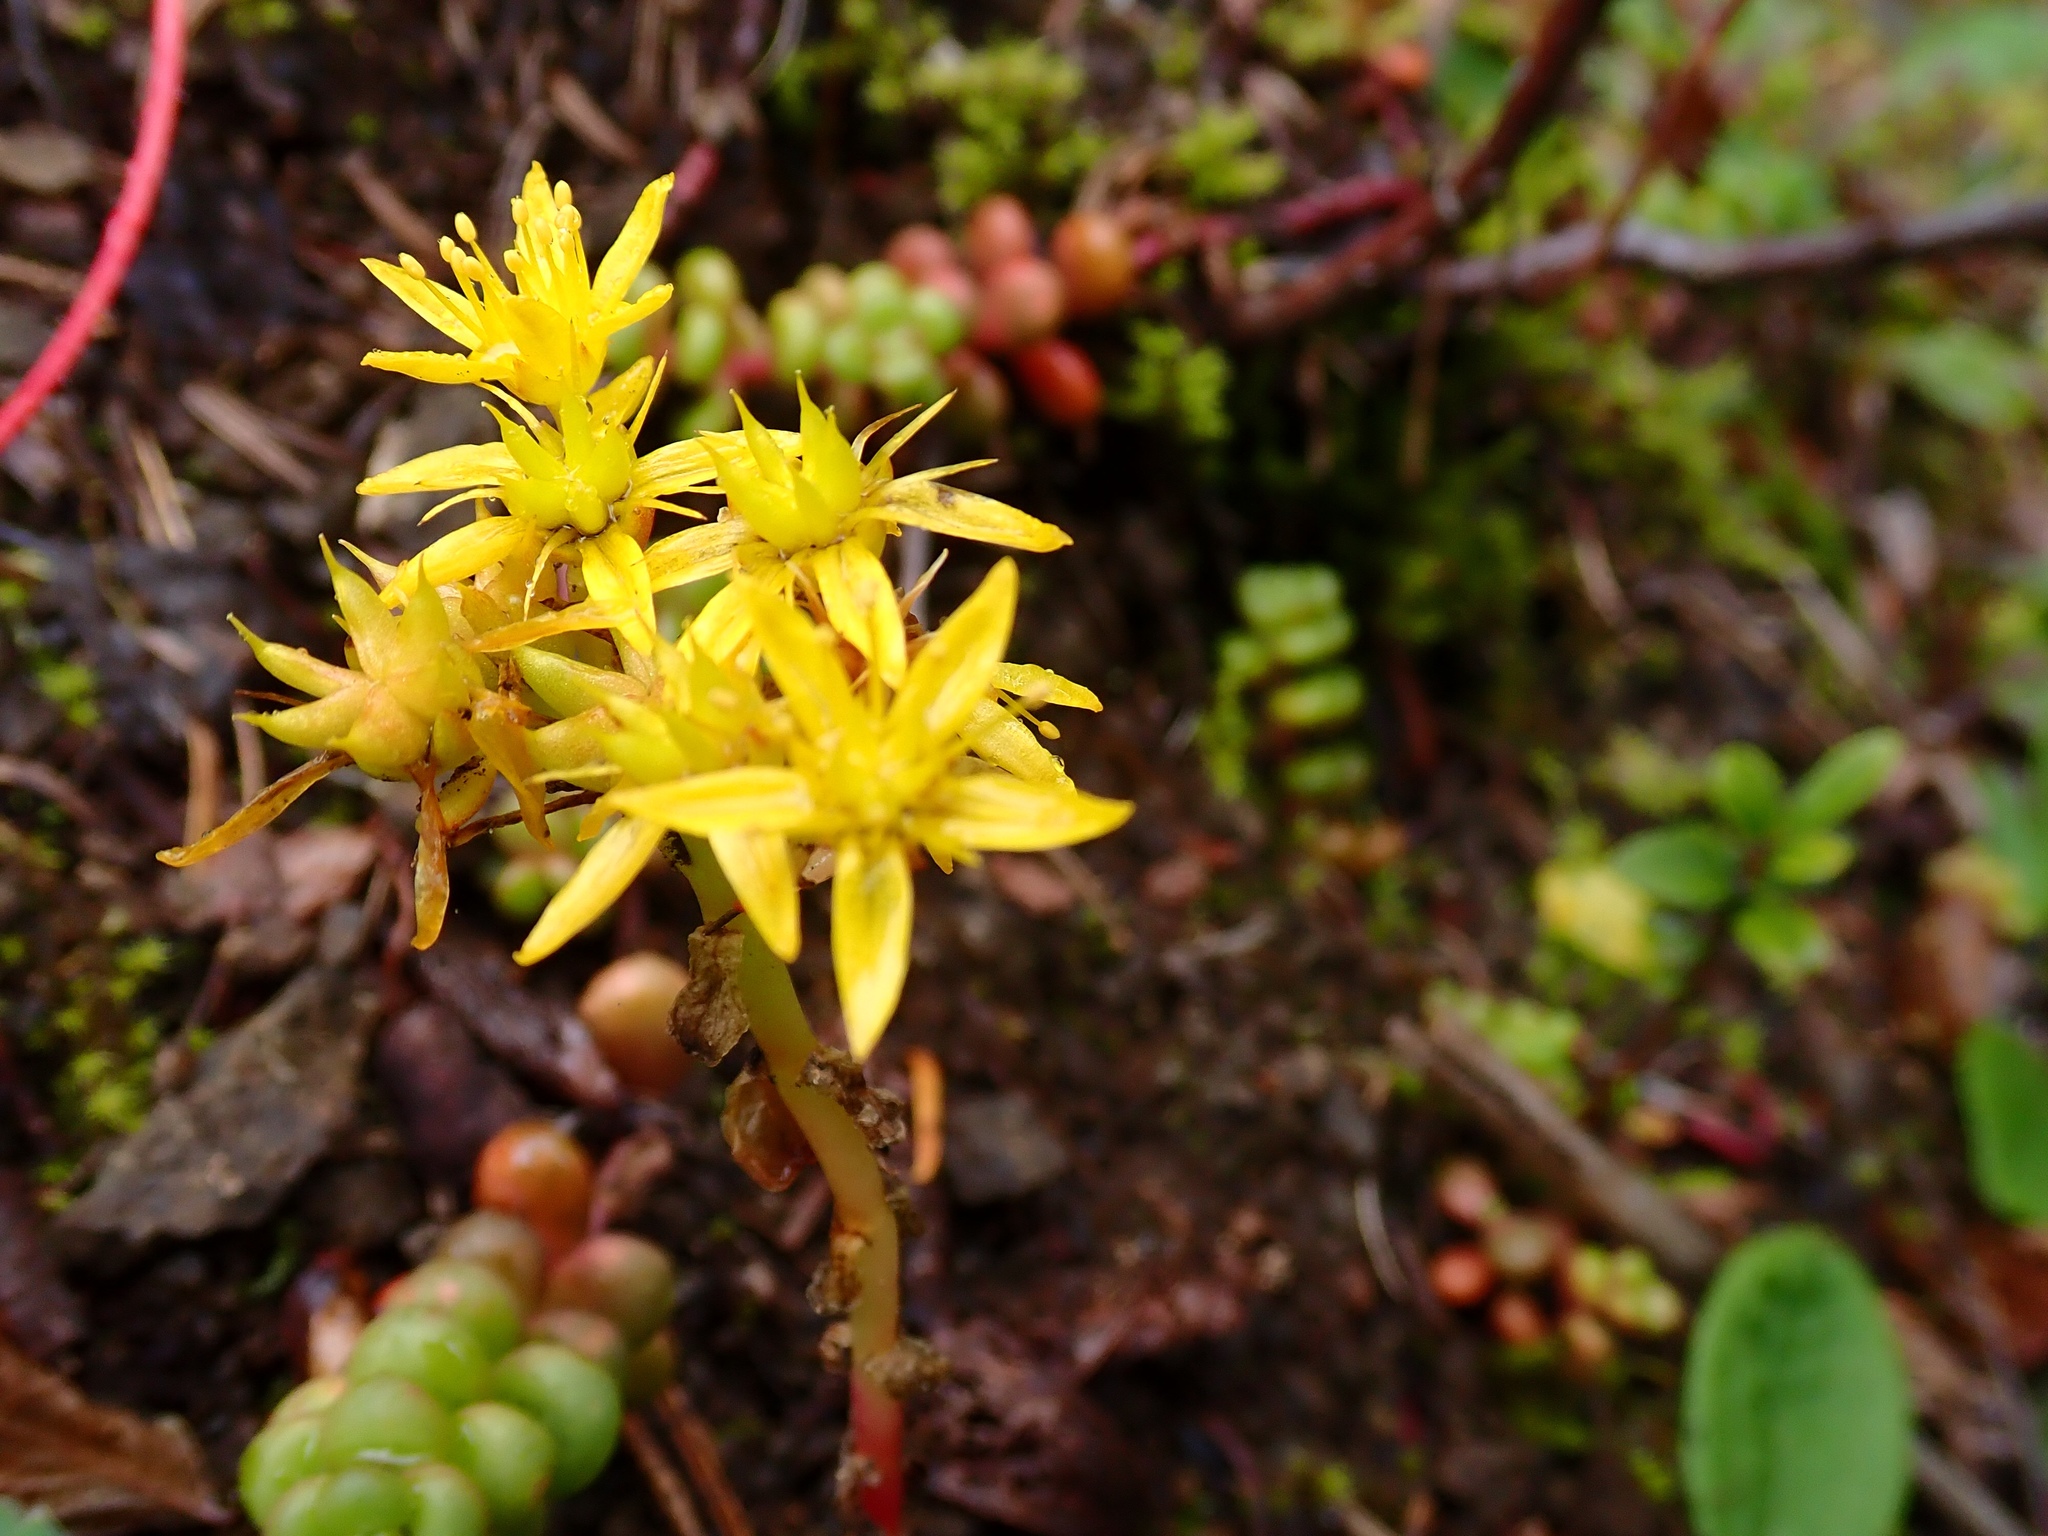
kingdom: Plantae
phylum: Tracheophyta
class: Magnoliopsida
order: Saxifragales
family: Crassulaceae
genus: Sedum
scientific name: Sedum divergens
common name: Cascade stonecrop
